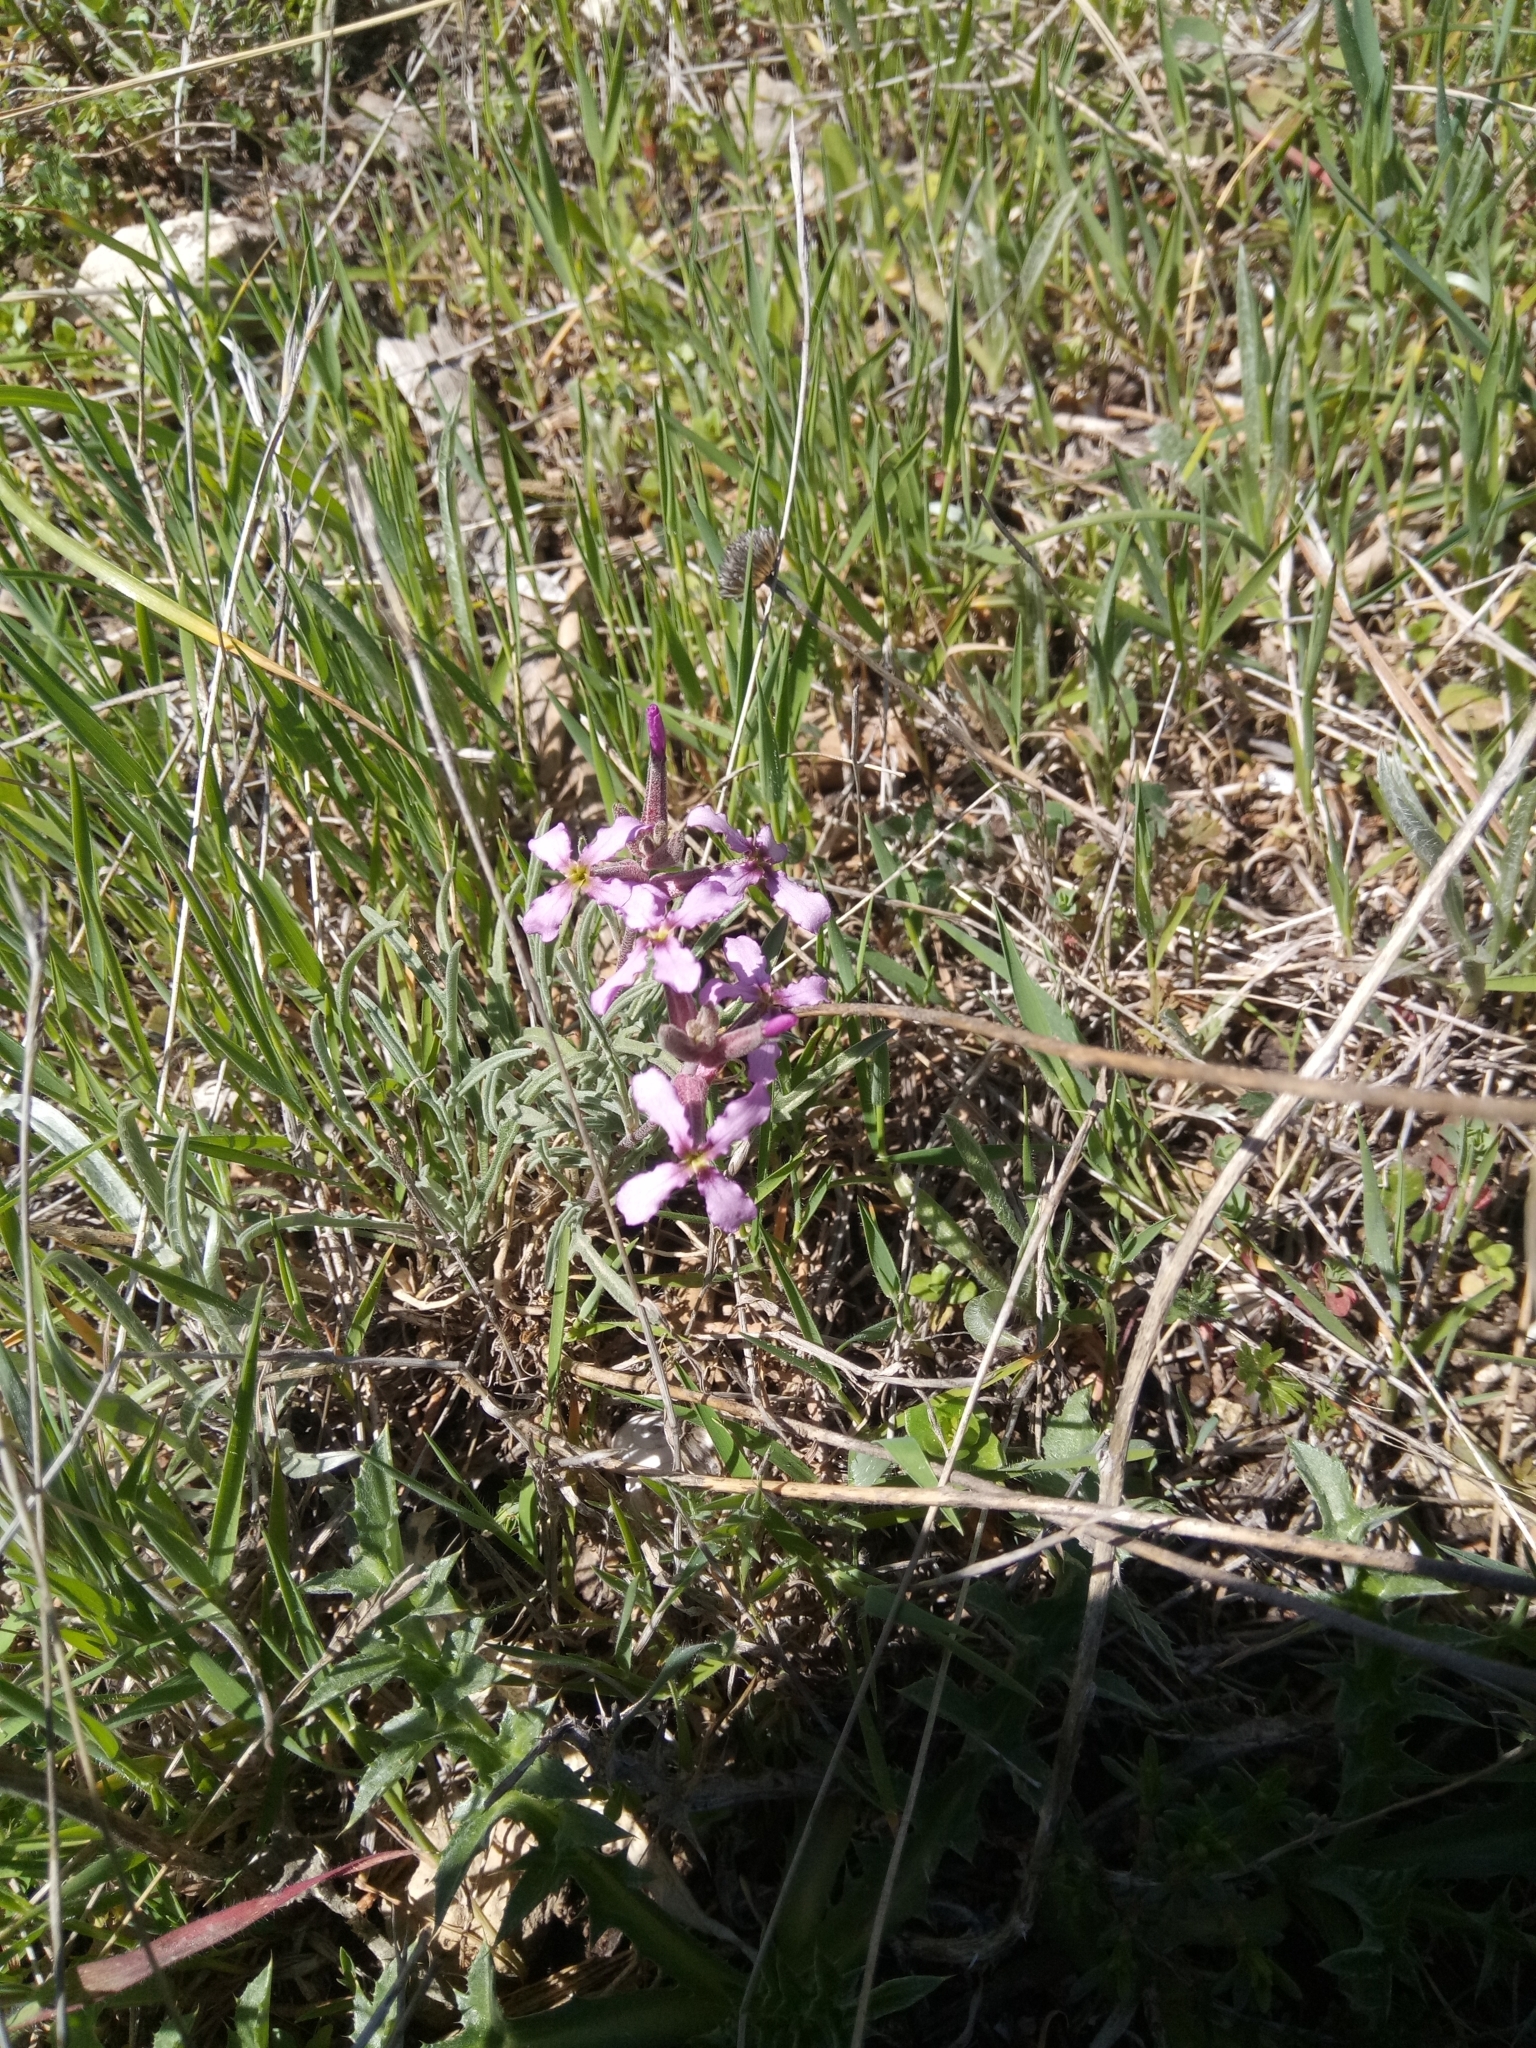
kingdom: Plantae
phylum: Tracheophyta
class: Magnoliopsida
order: Brassicales
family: Brassicaceae
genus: Matthiola
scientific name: Matthiola fruticulosa
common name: Sad stock
